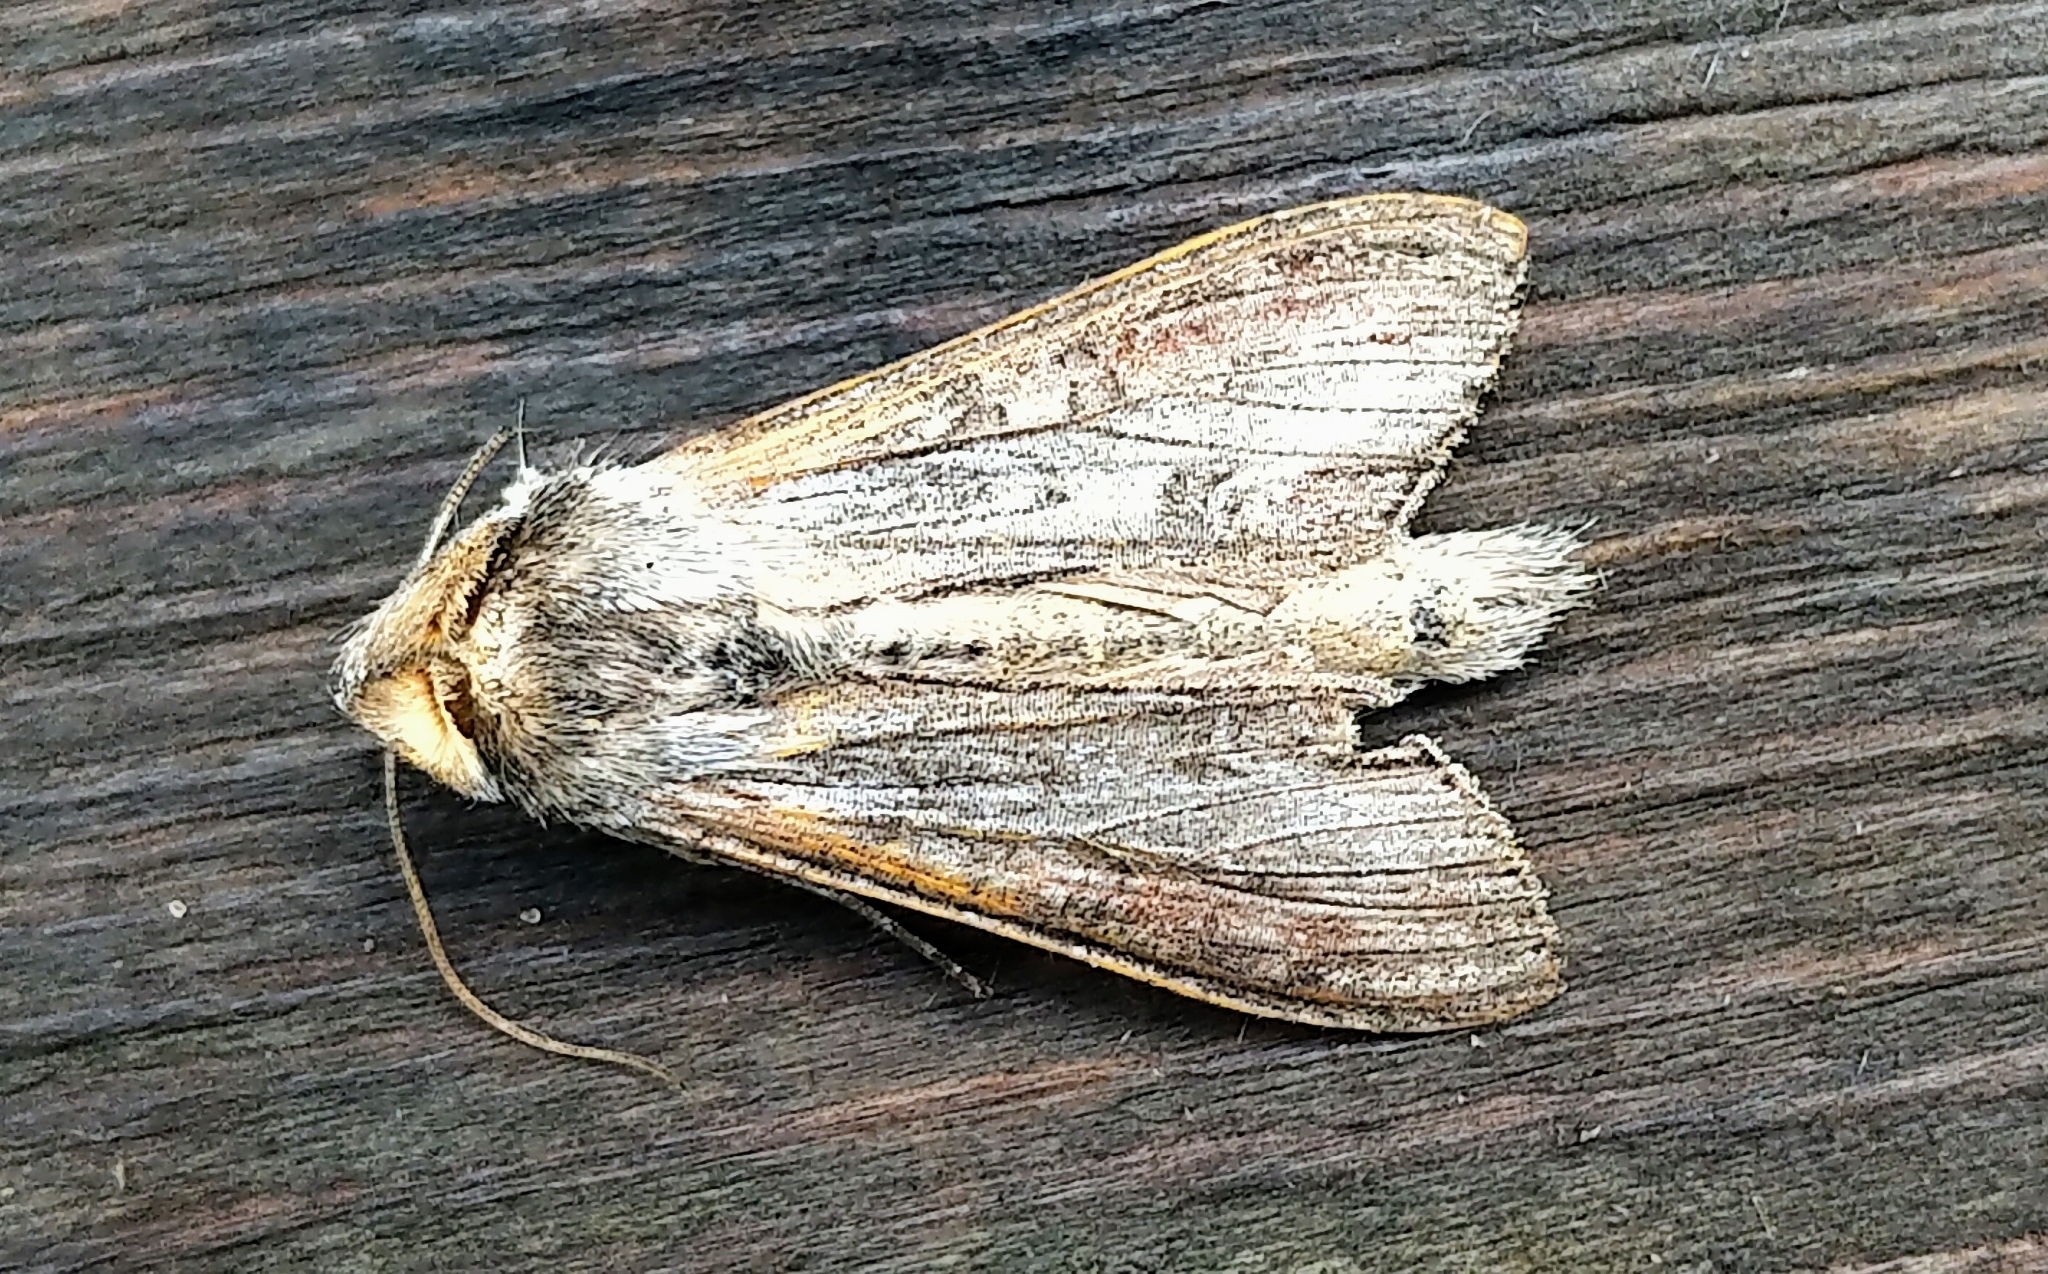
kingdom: Animalia
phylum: Arthropoda
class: Insecta
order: Lepidoptera
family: Noctuidae
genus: Cucullia
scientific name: Cucullia montanae
